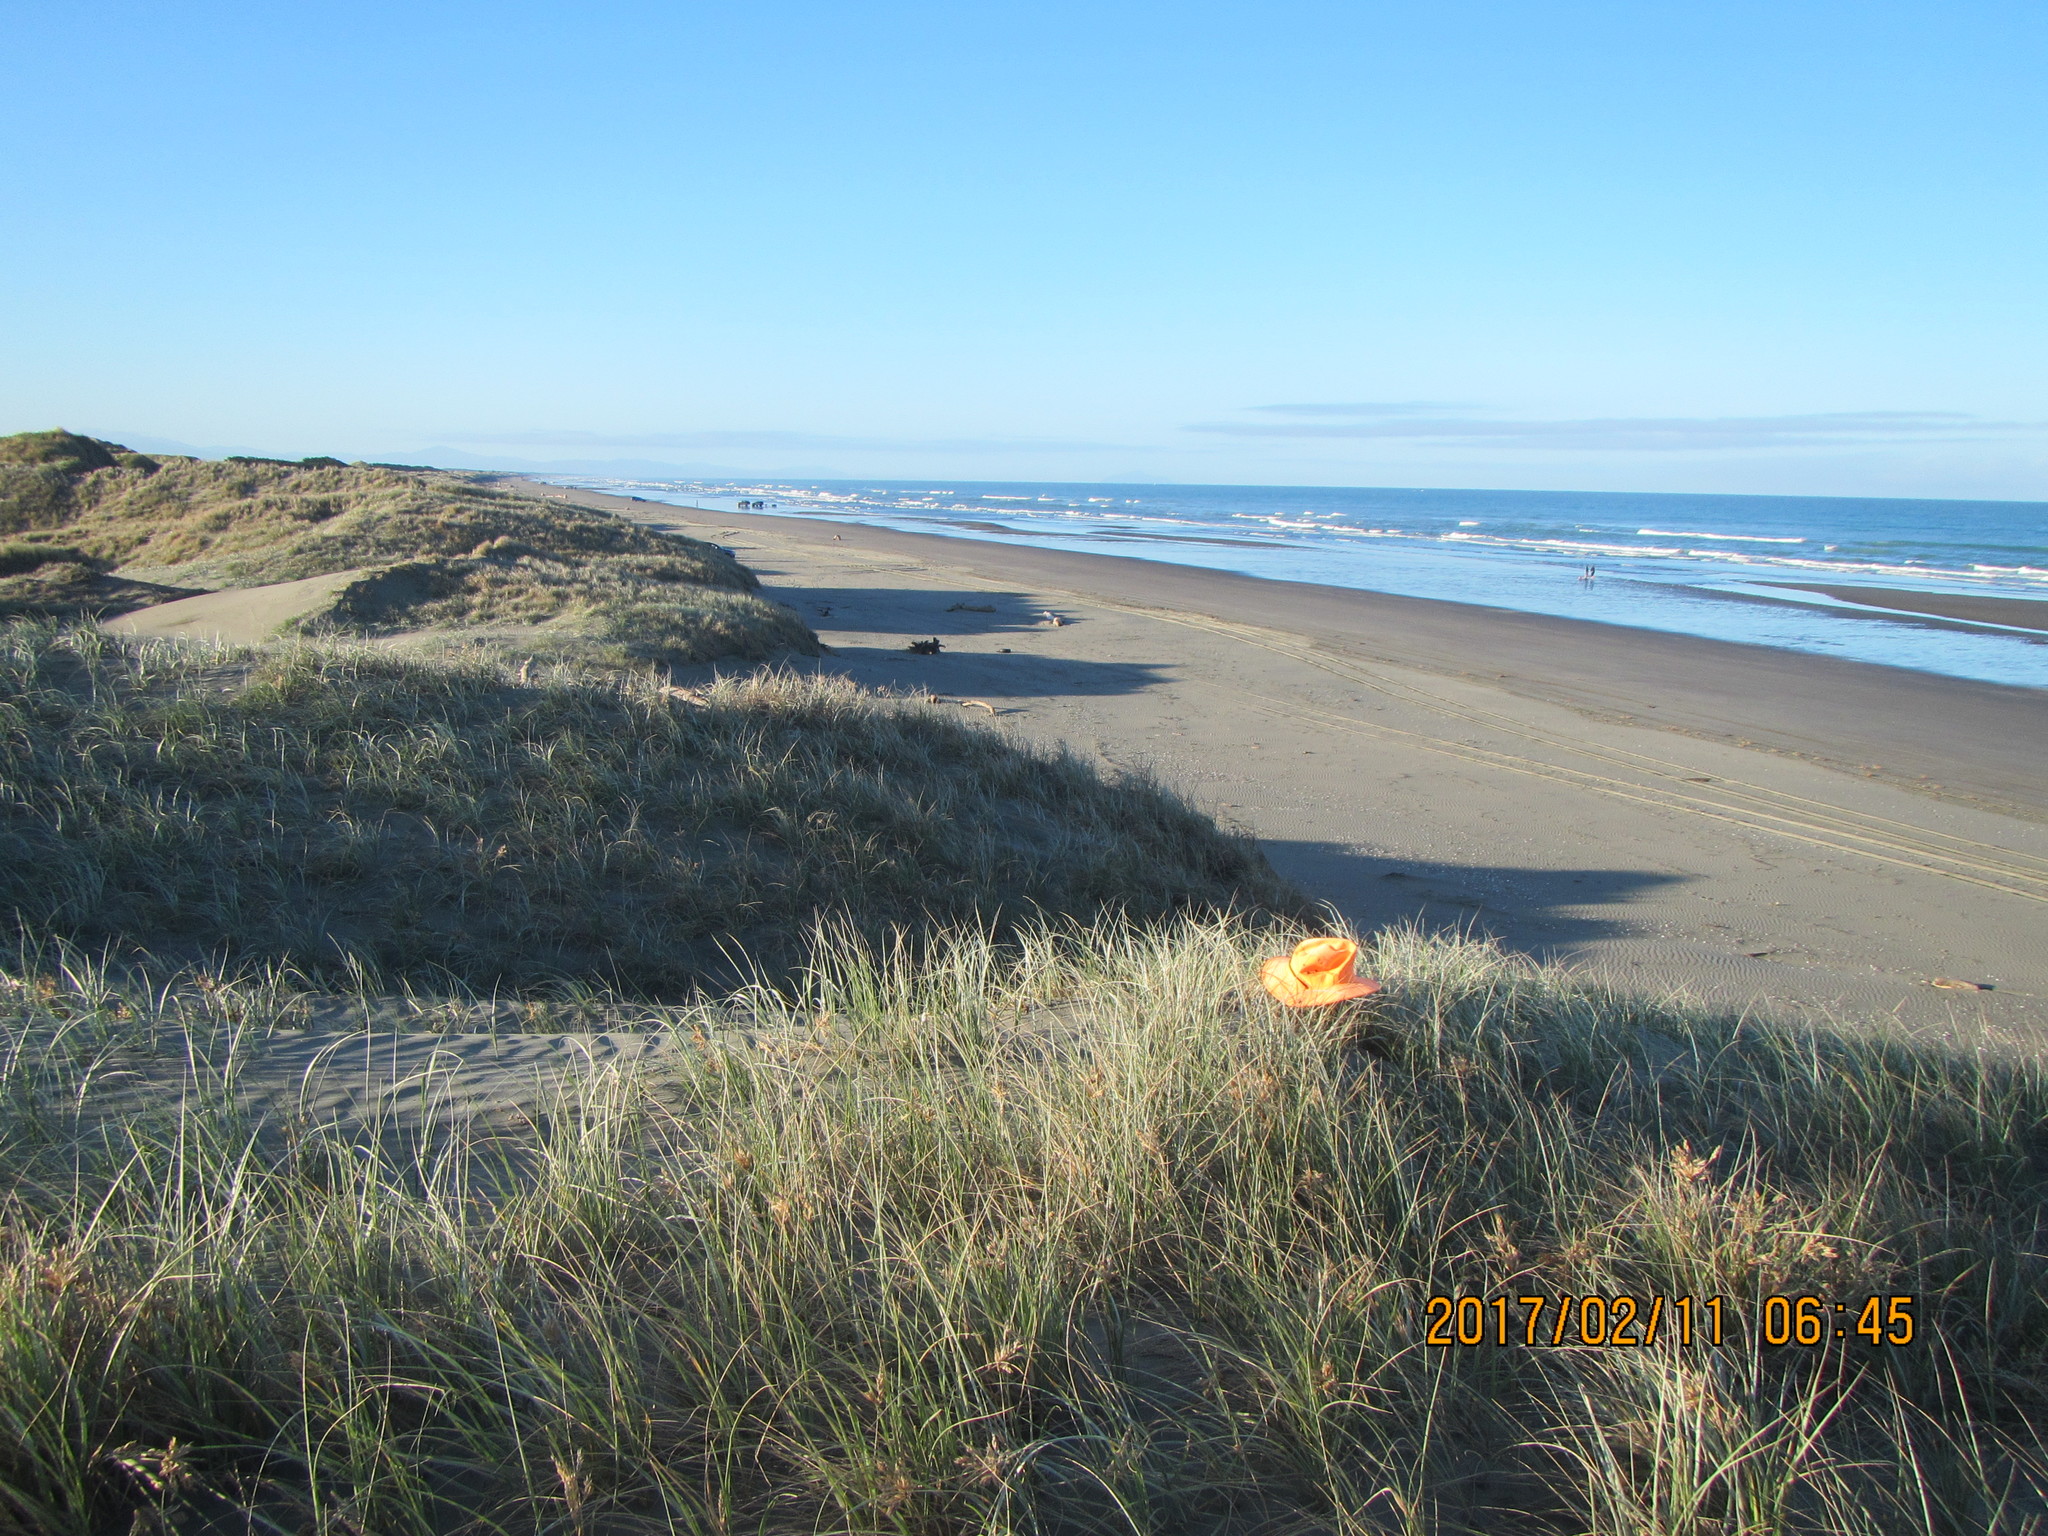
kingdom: Animalia
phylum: Arthropoda
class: Insecta
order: Lepidoptera
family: Noctuidae
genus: Proteuxoa
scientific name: Proteuxoa sanguinipuncta
